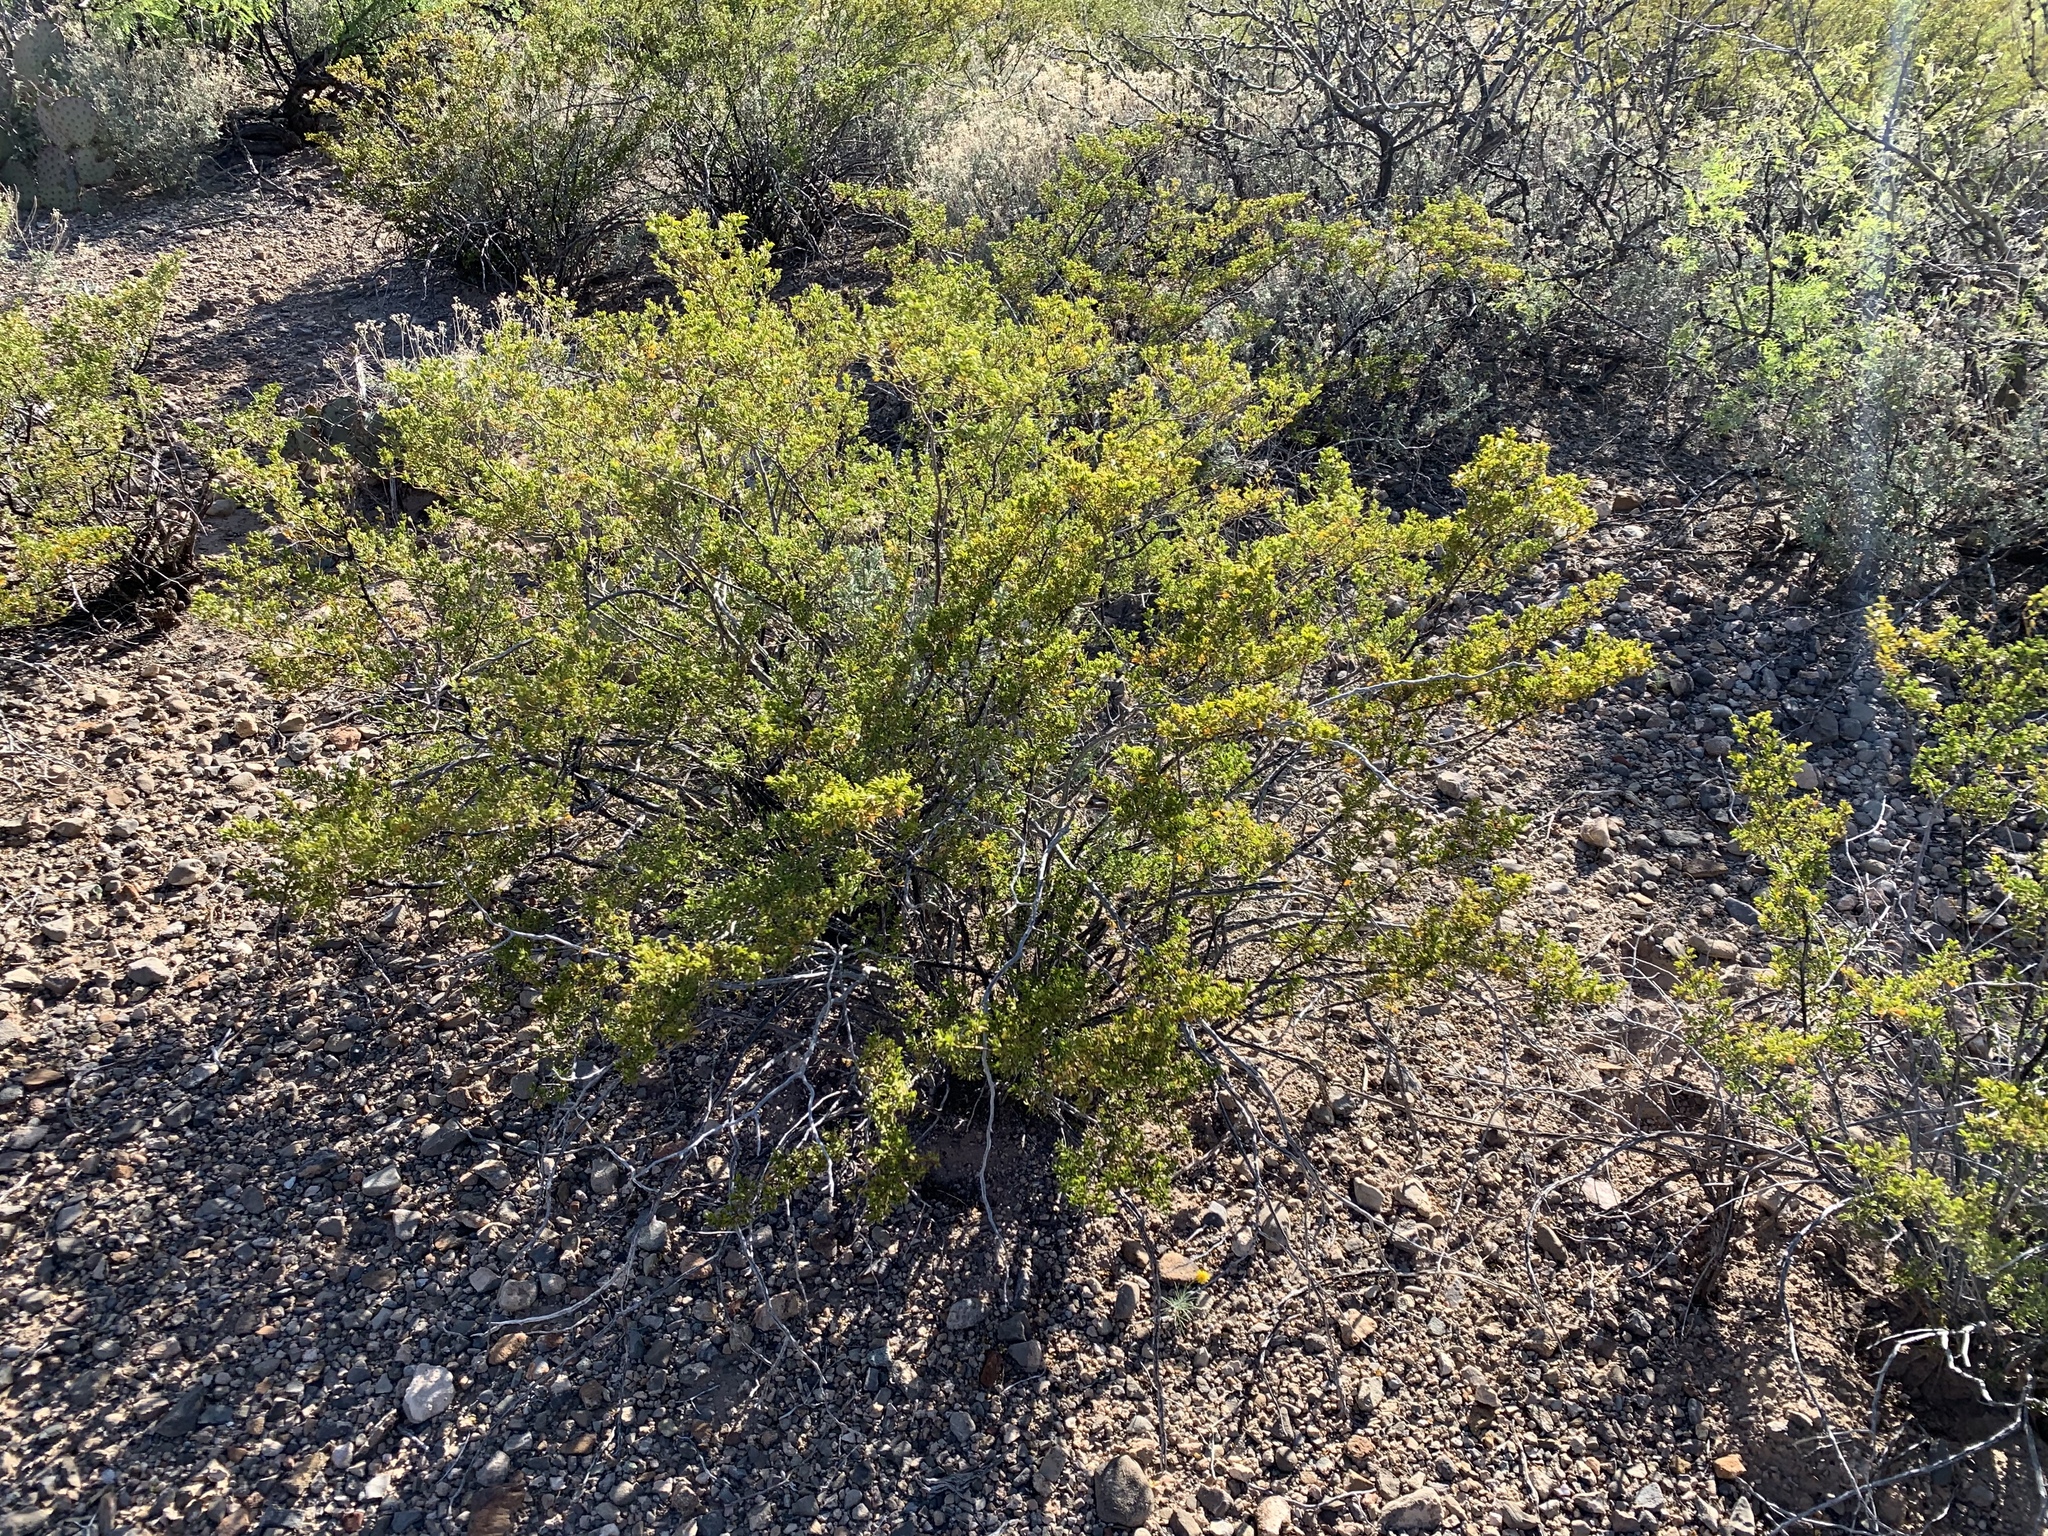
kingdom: Plantae
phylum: Tracheophyta
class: Magnoliopsida
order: Zygophyllales
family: Zygophyllaceae
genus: Larrea
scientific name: Larrea tridentata
